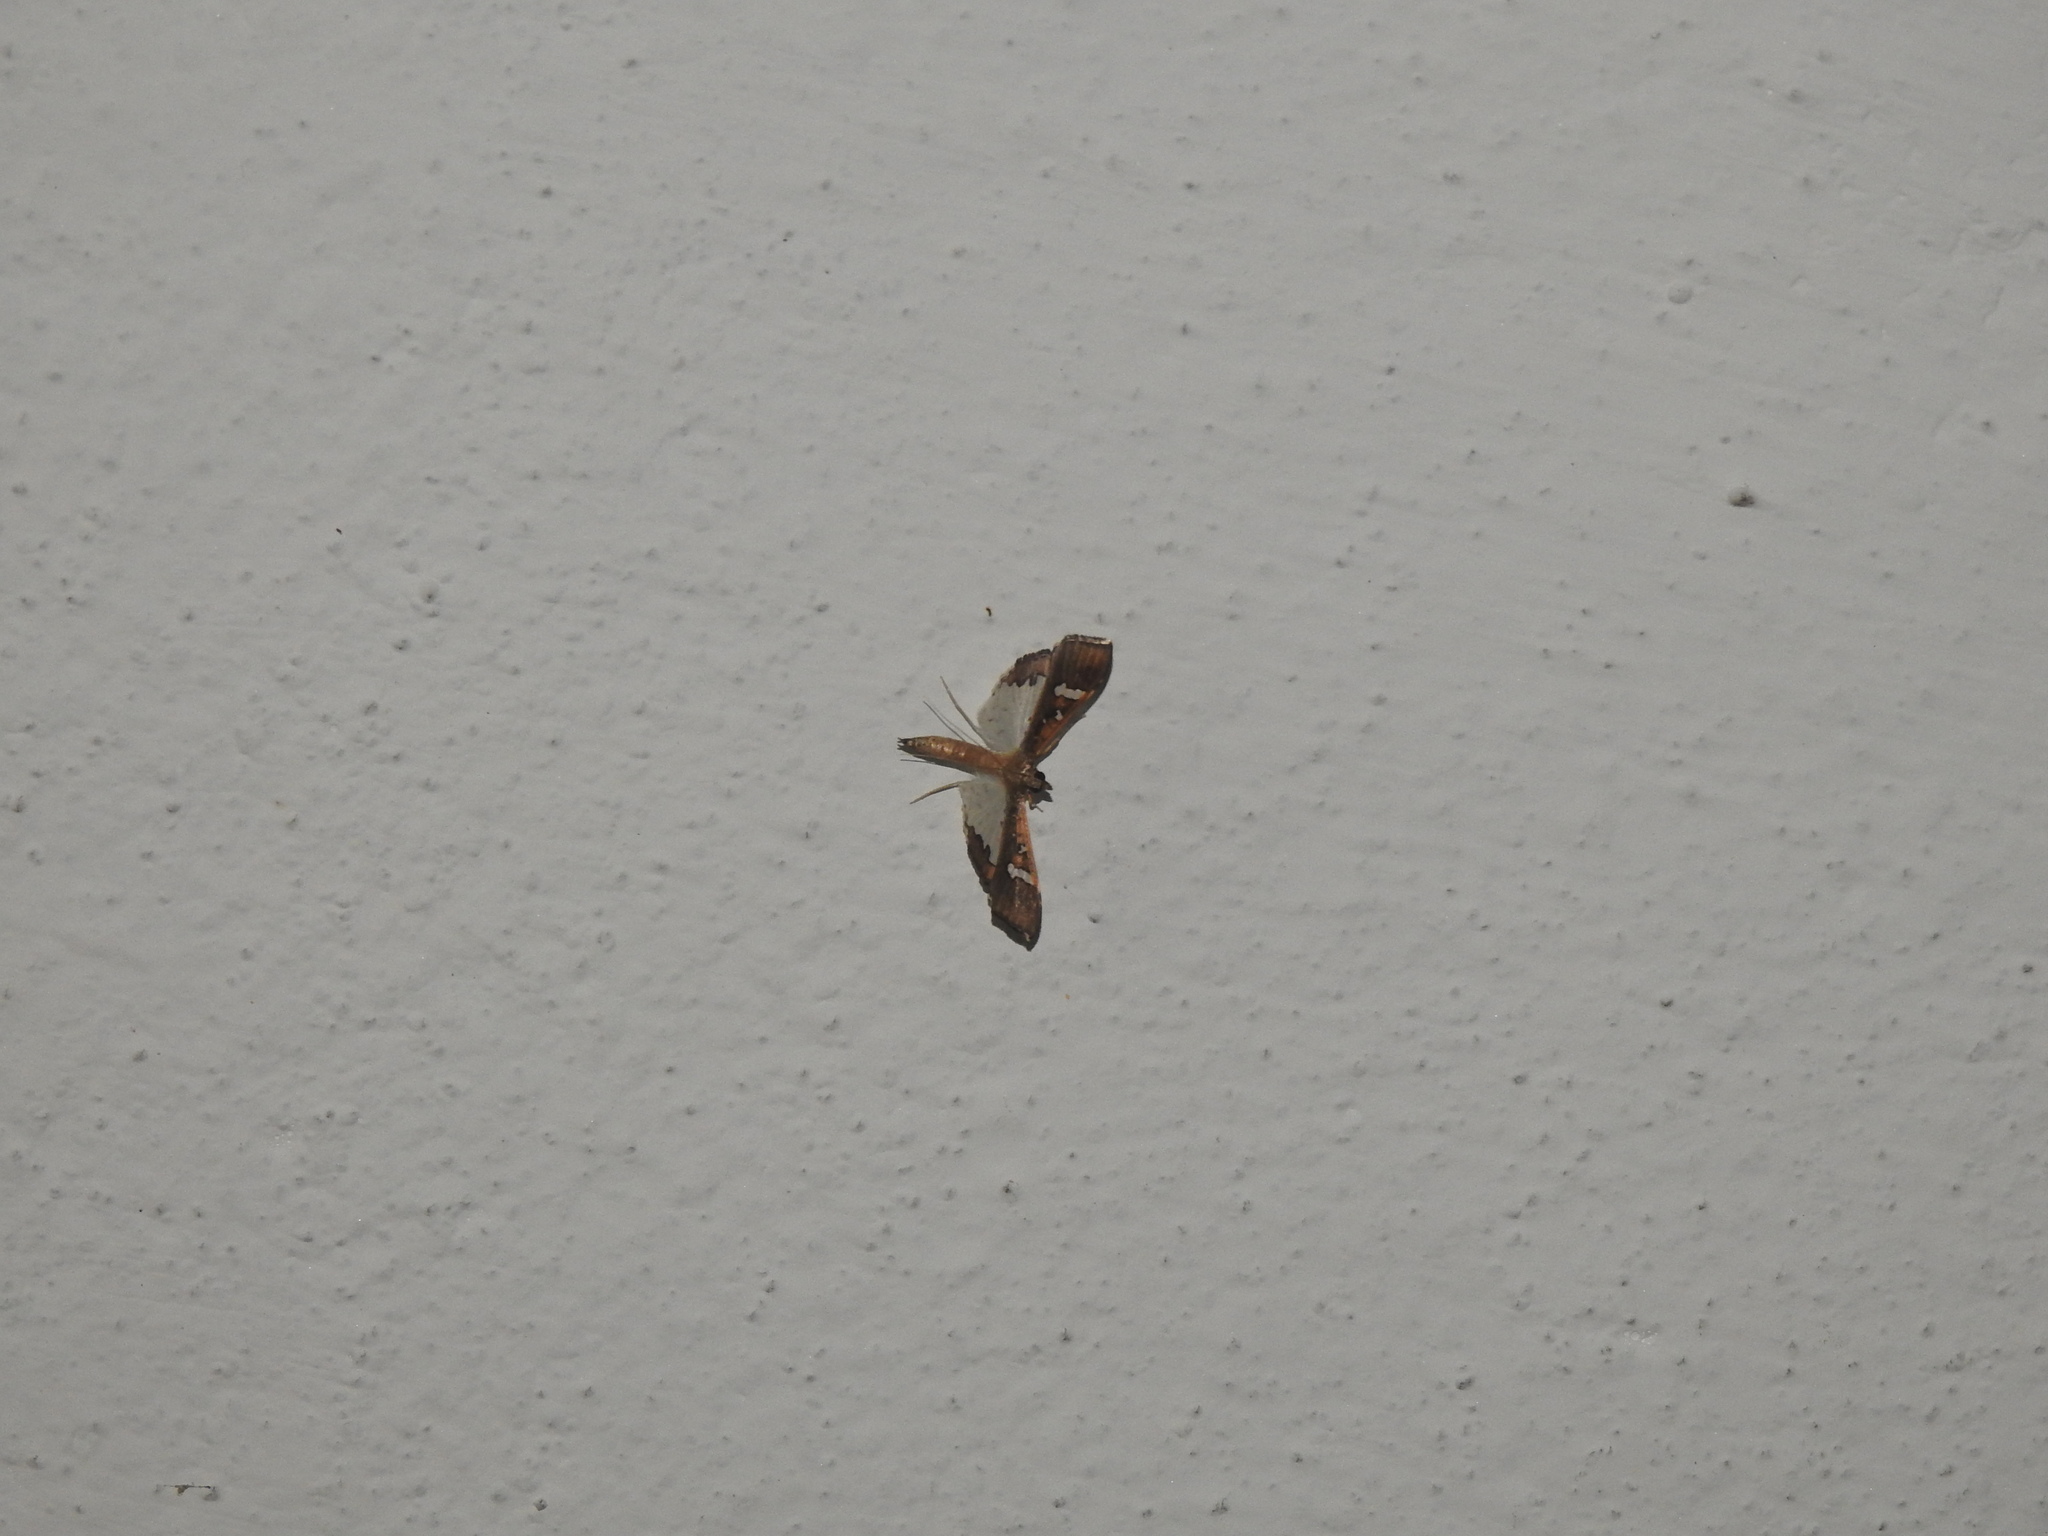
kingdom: Animalia
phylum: Arthropoda
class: Insecta
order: Lepidoptera
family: Crambidae
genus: Maruca
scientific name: Maruca vitrata
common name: Maruca pod borer
